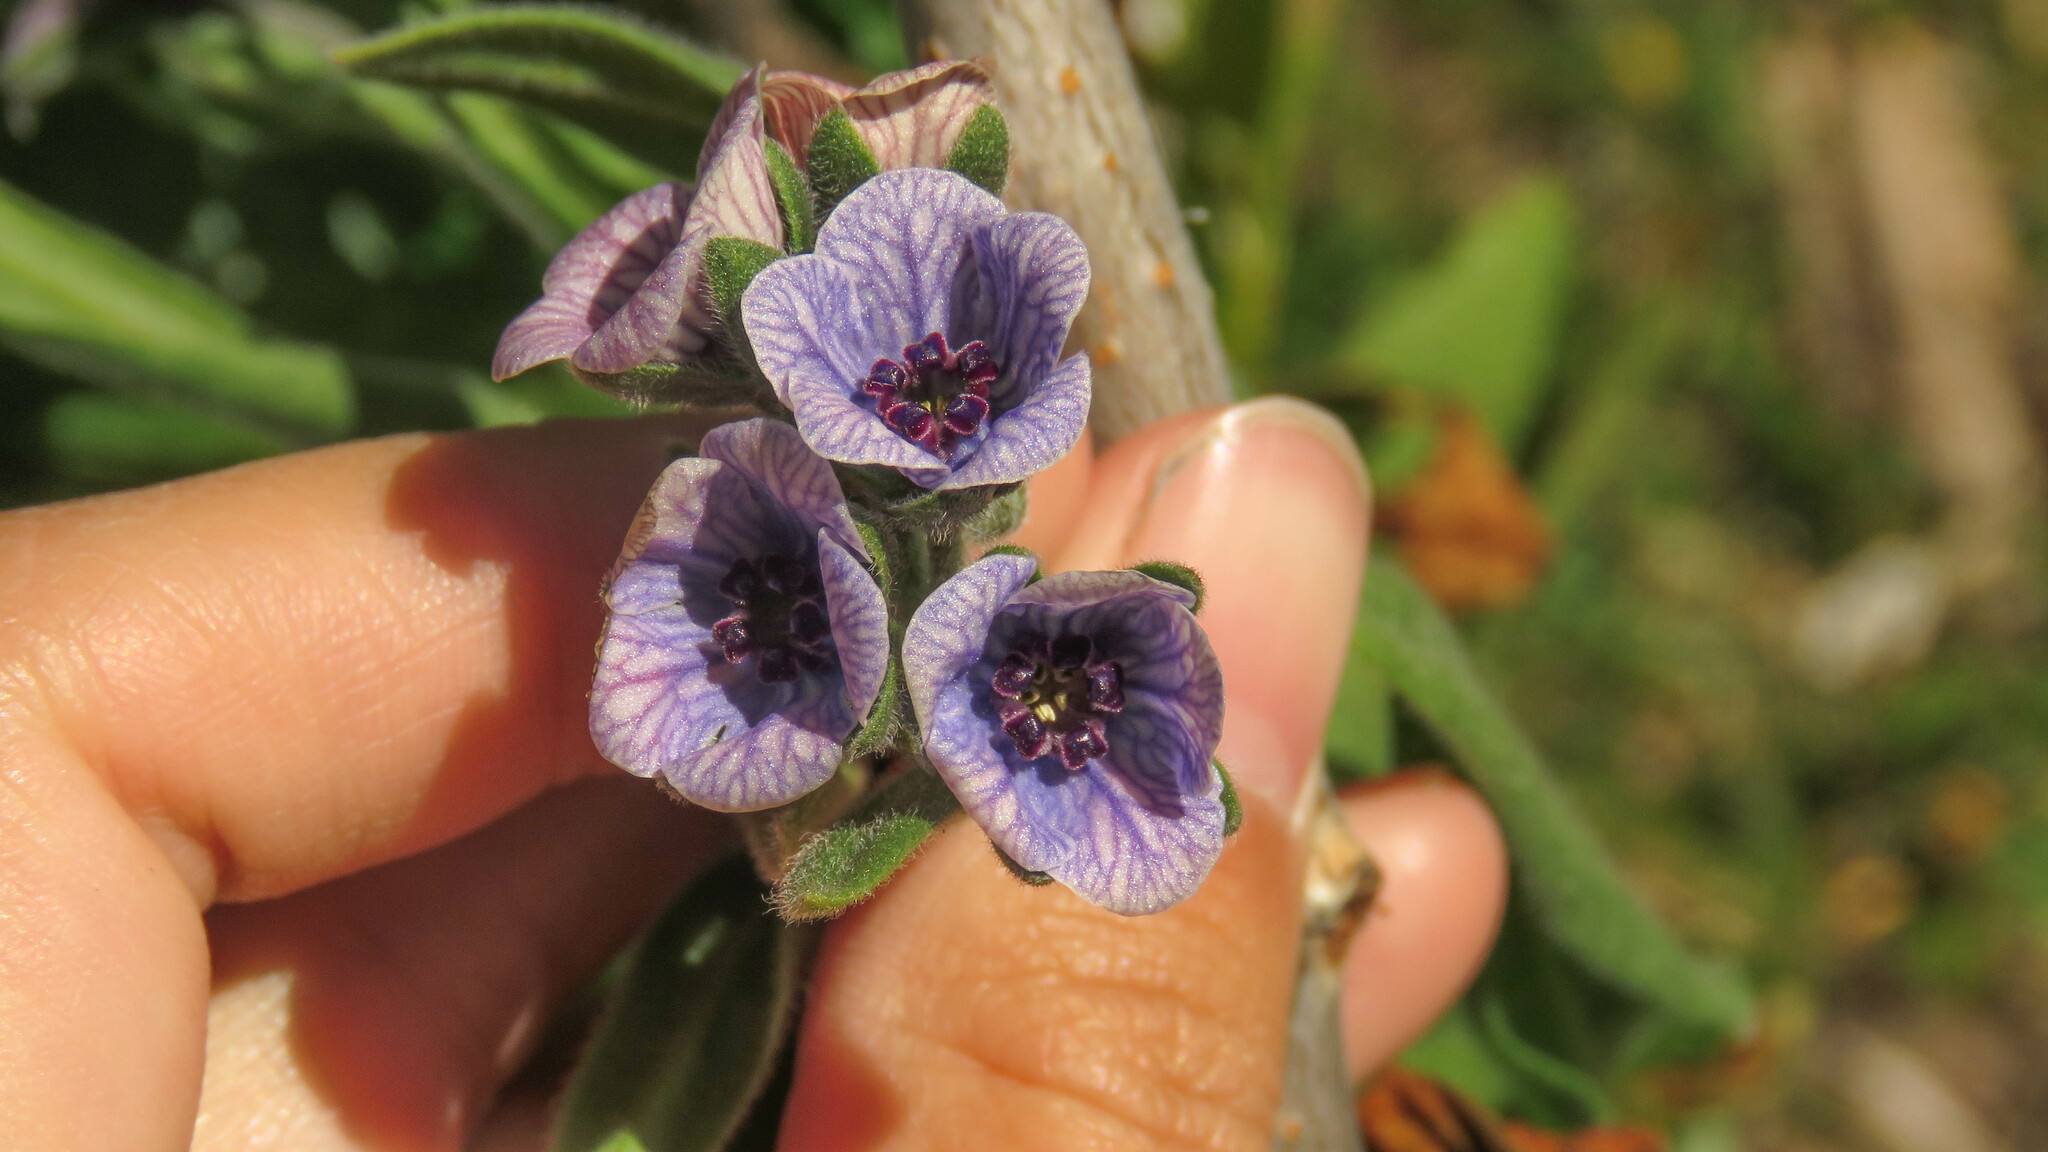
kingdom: Plantae
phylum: Tracheophyta
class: Magnoliopsida
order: Boraginales
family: Boraginaceae
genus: Cynoglossum
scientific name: Cynoglossum creticum
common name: Blue hound's tongue
